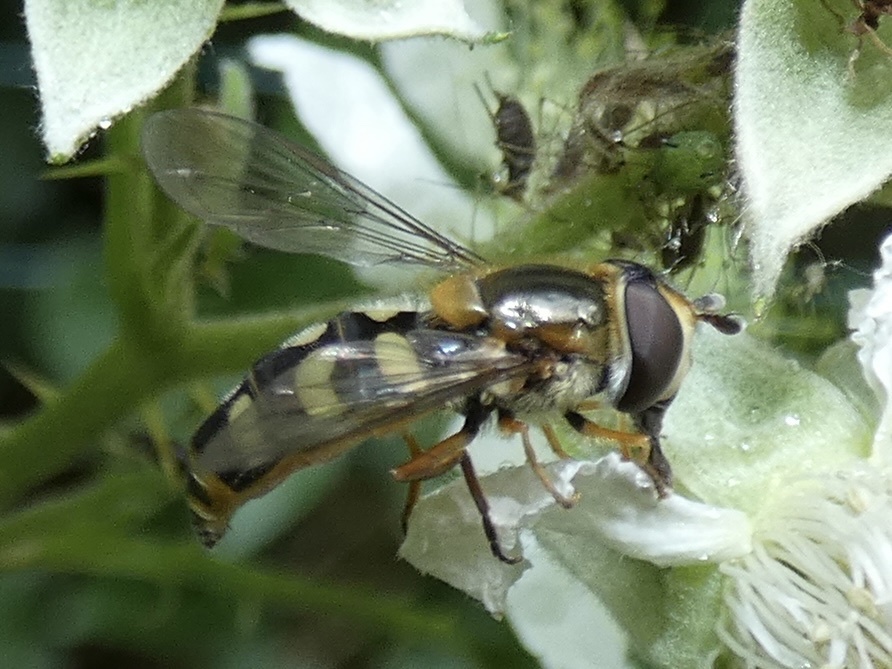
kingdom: Animalia
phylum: Arthropoda
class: Insecta
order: Diptera
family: Syrphidae
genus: Eupeodes
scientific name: Eupeodes
